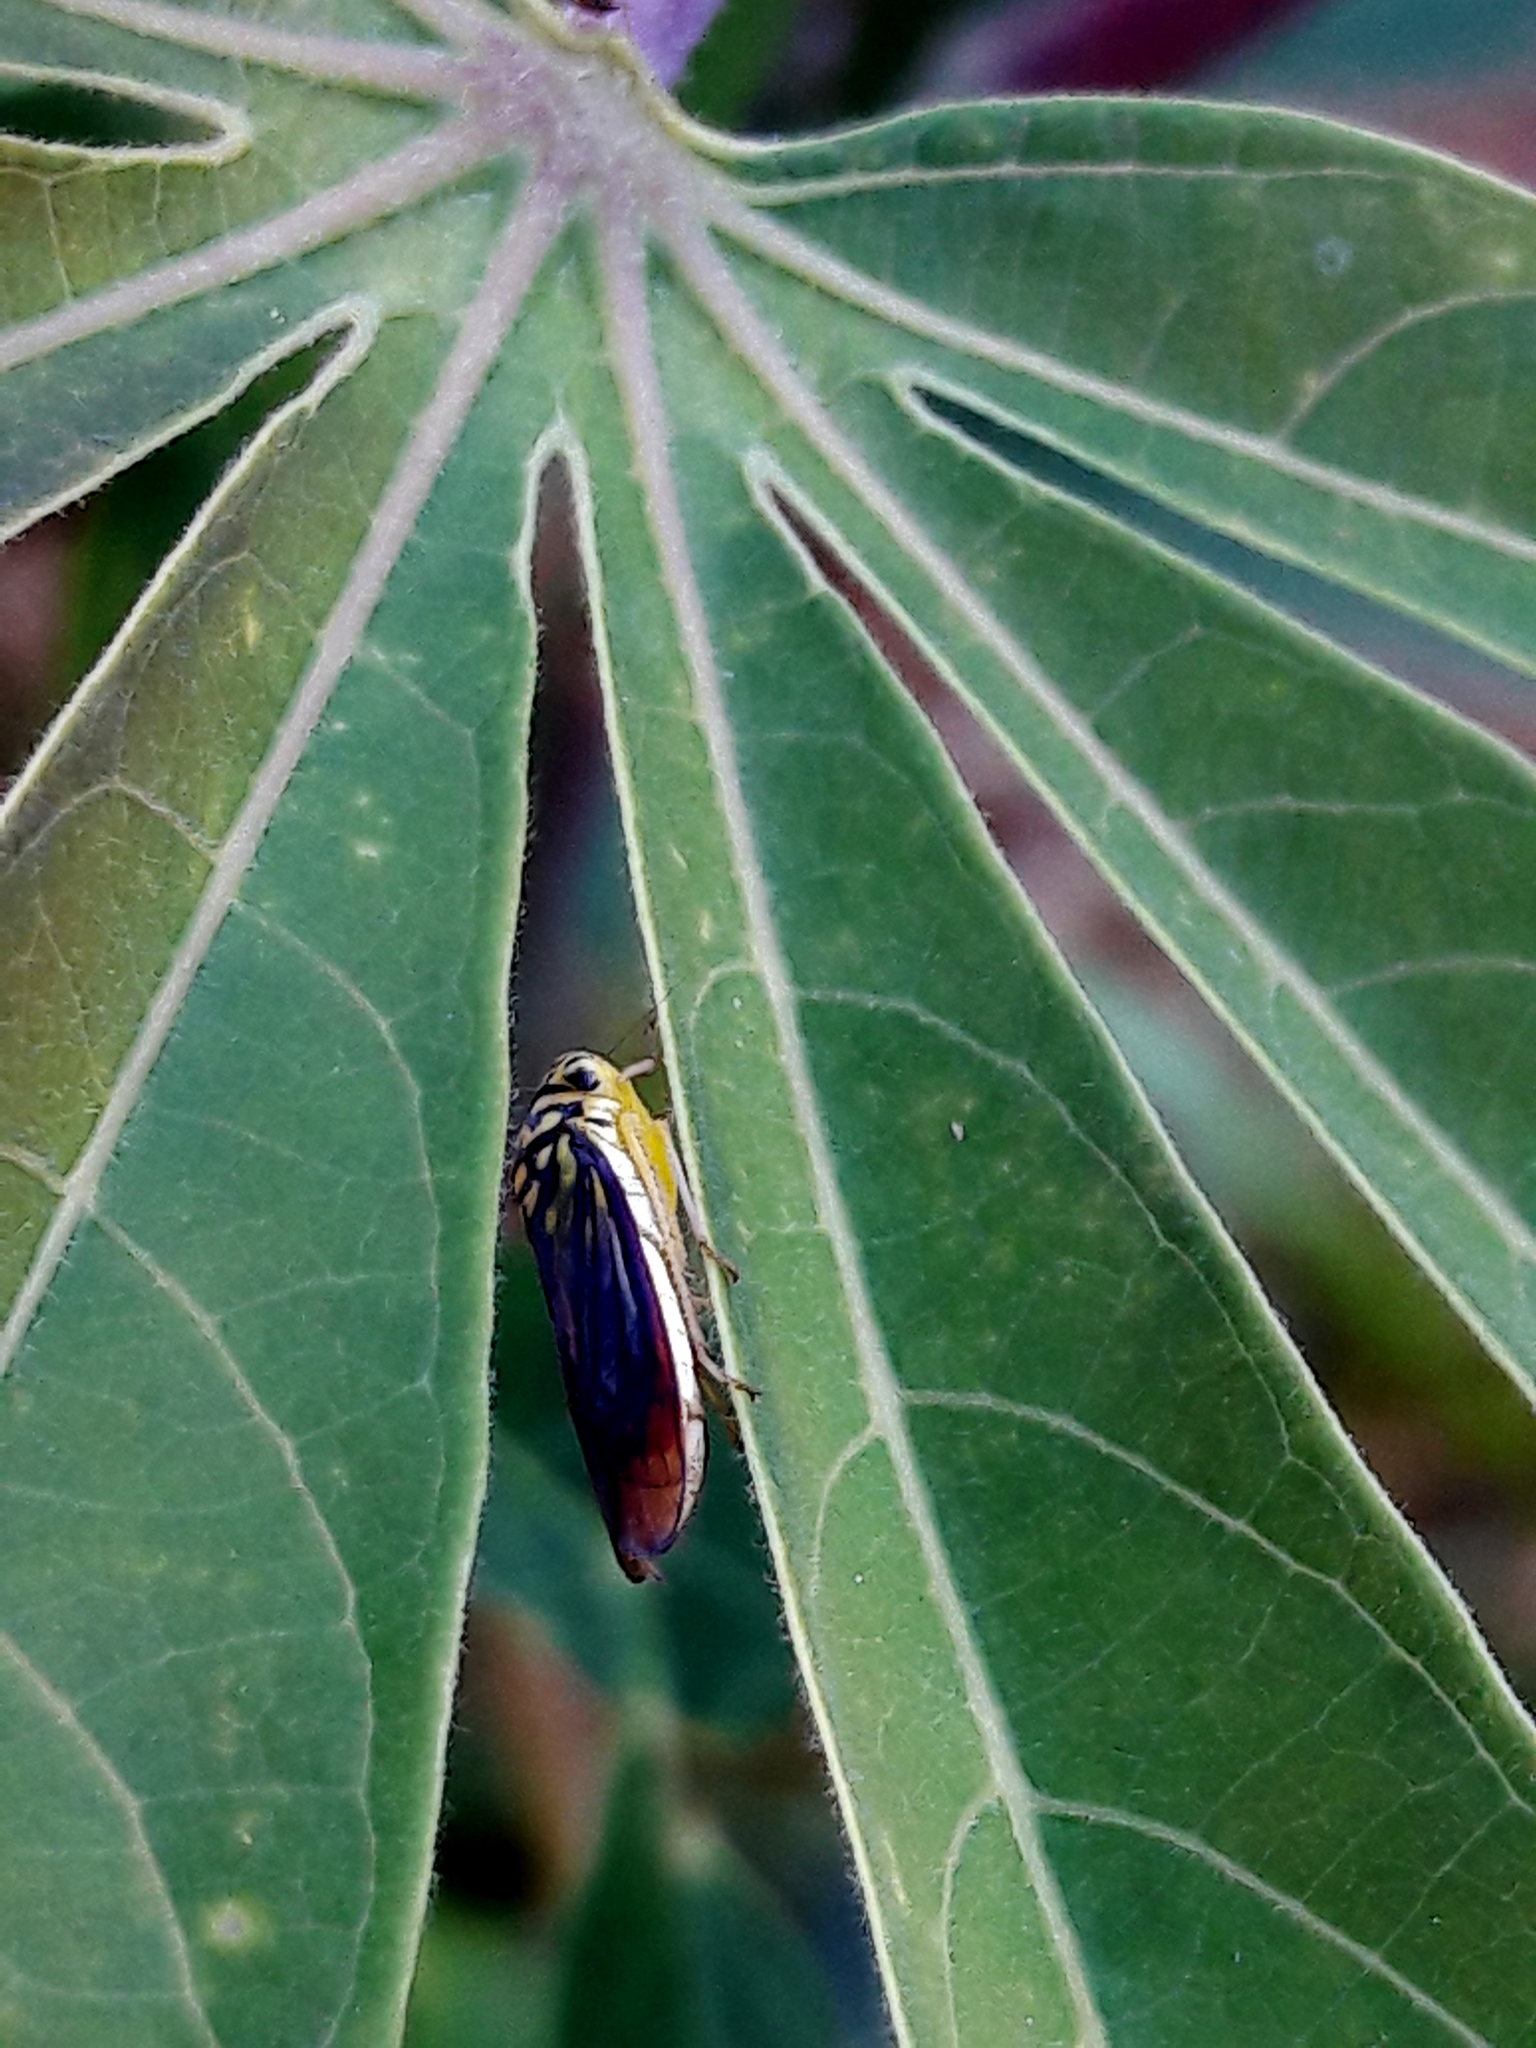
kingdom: Animalia
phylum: Arthropoda
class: Insecta
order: Hemiptera
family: Cicadellidae
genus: Dilobopterus
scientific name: Dilobopterus costalimai
